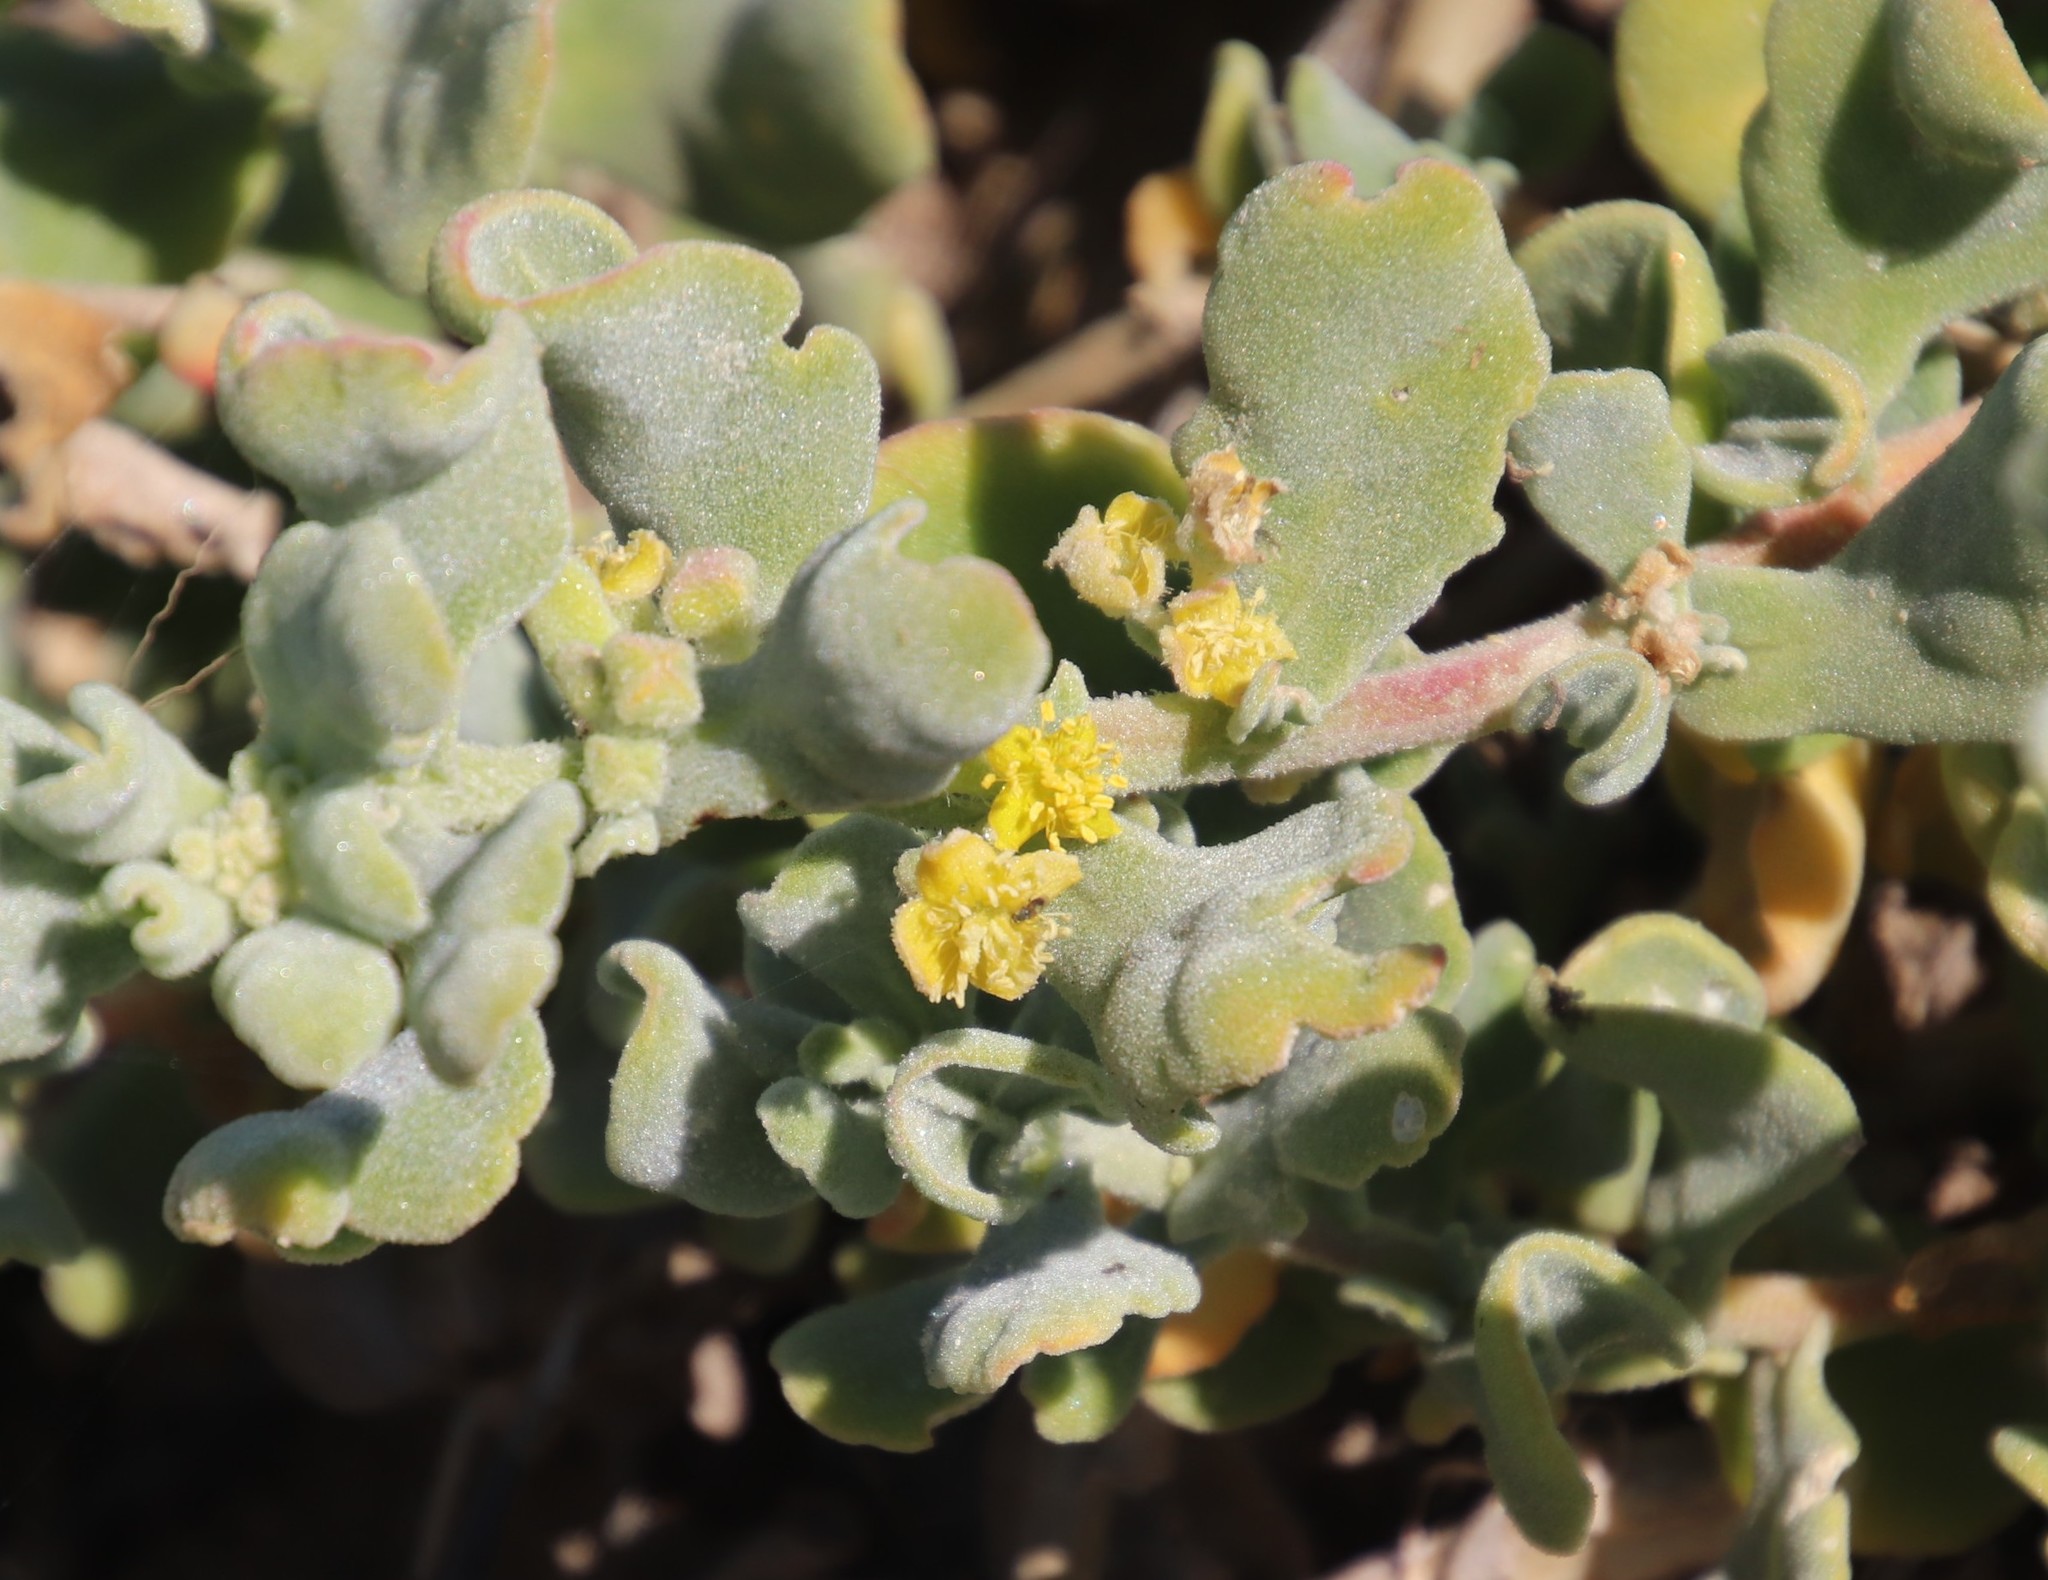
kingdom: Plantae
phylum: Tracheophyta
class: Magnoliopsida
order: Caryophyllales
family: Aizoaceae
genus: Tetragonia
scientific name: Tetragonia decumbens
